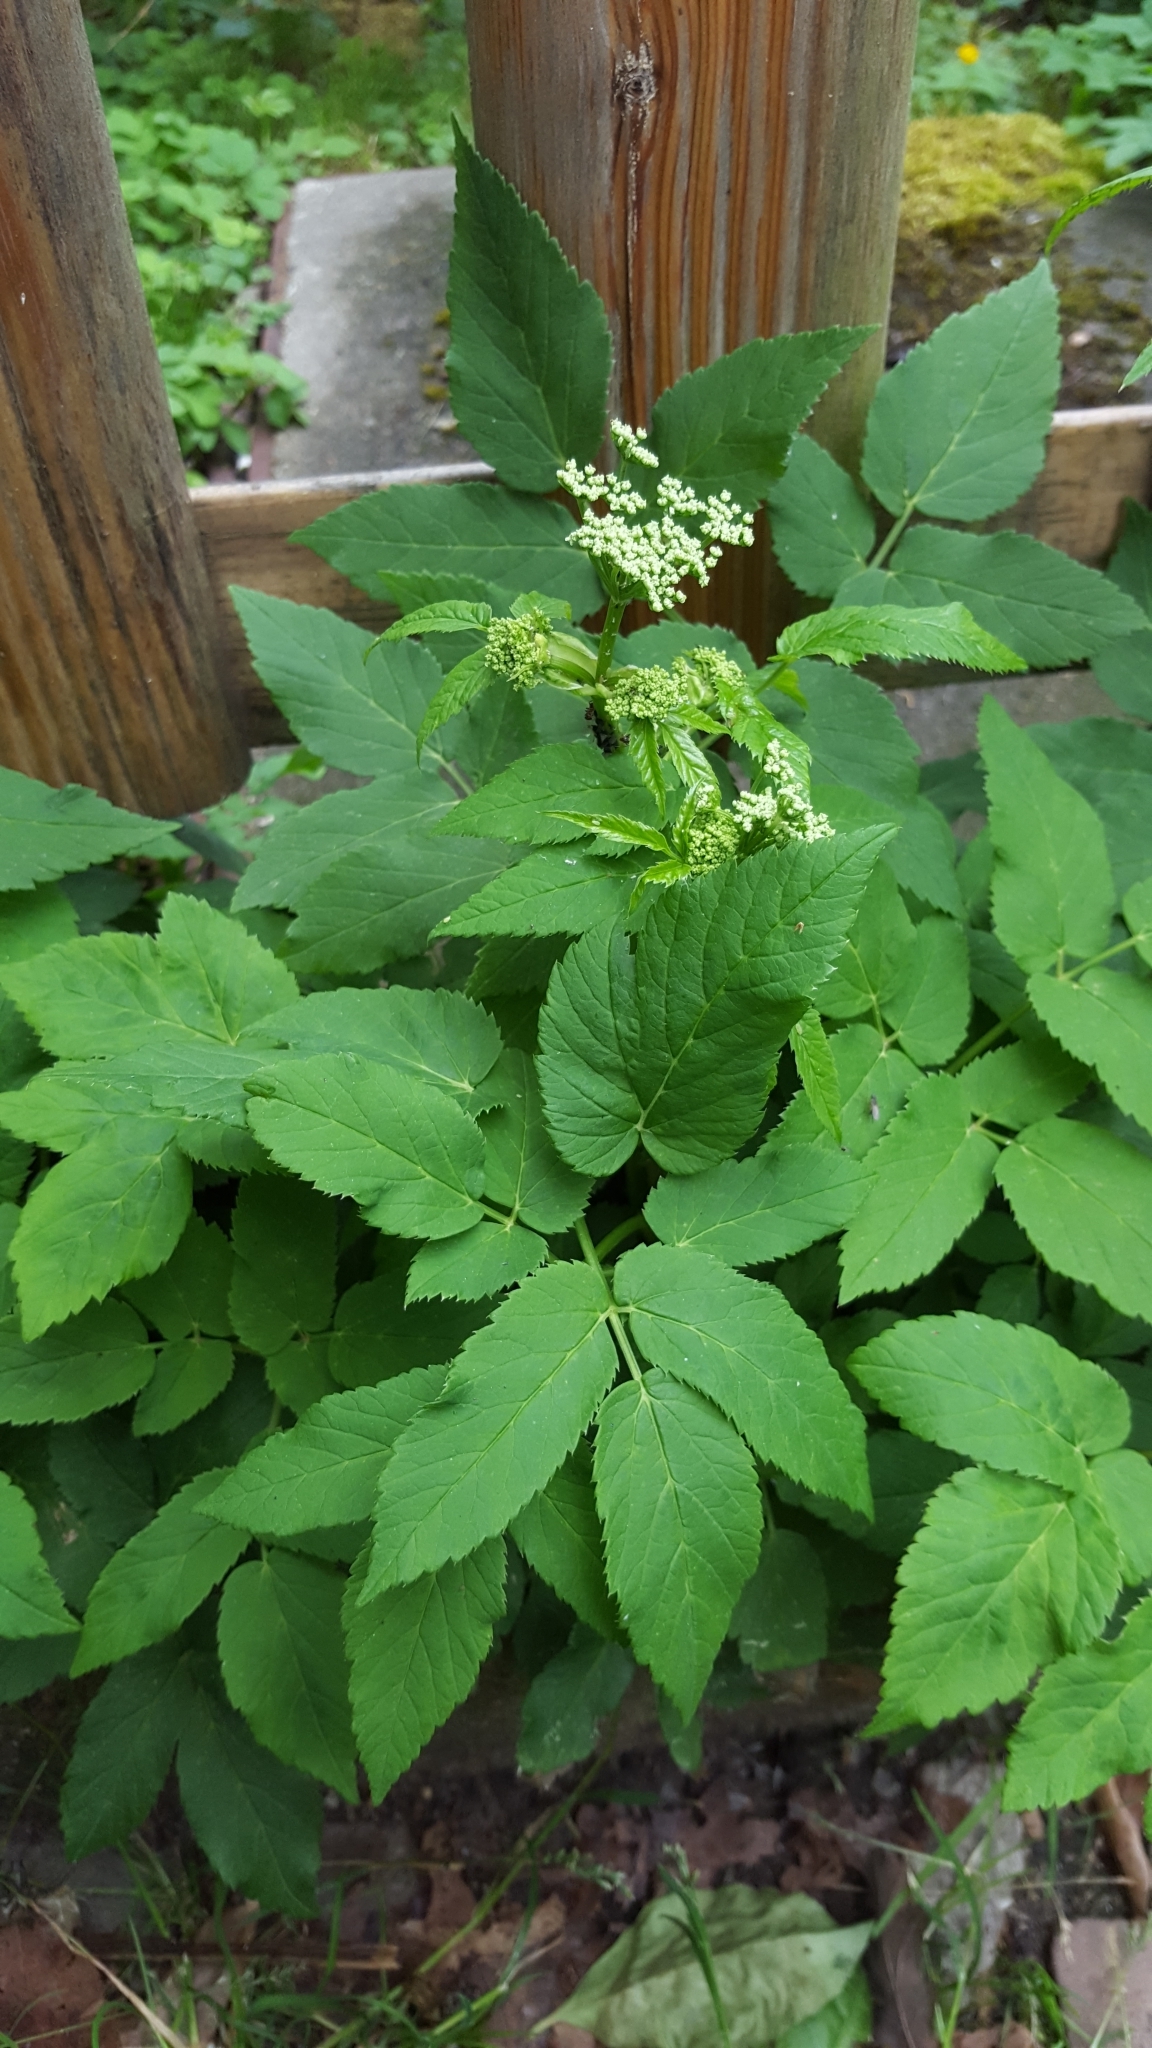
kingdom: Plantae
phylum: Tracheophyta
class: Magnoliopsida
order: Apiales
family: Apiaceae
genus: Aegopodium
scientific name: Aegopodium podagraria
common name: Ground-elder
